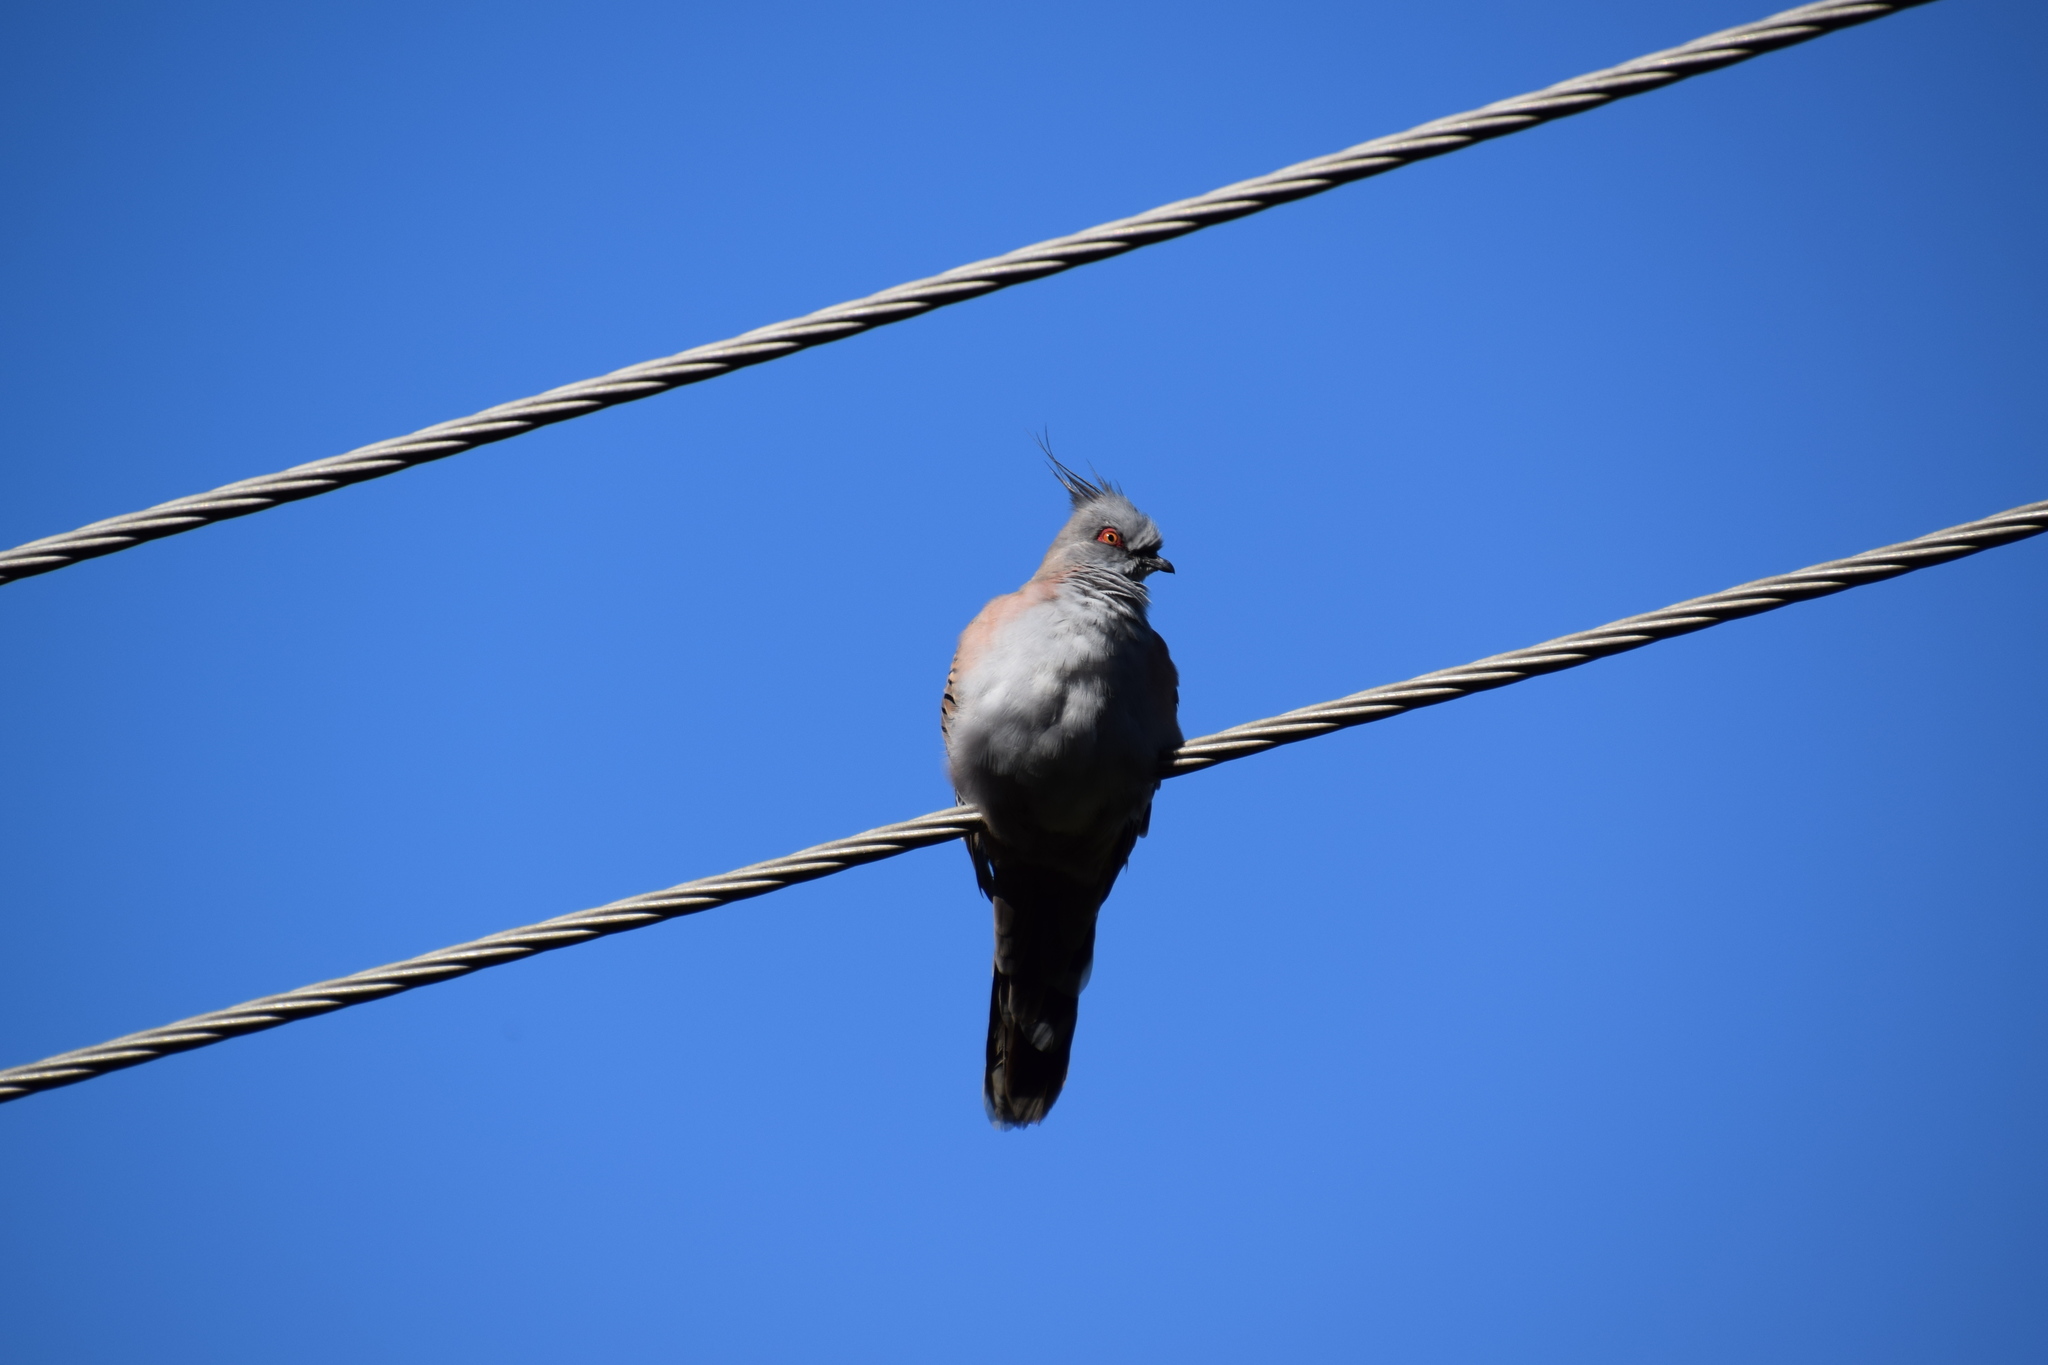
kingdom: Animalia
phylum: Chordata
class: Aves
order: Columbiformes
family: Columbidae
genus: Ocyphaps
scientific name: Ocyphaps lophotes
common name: Crested pigeon
